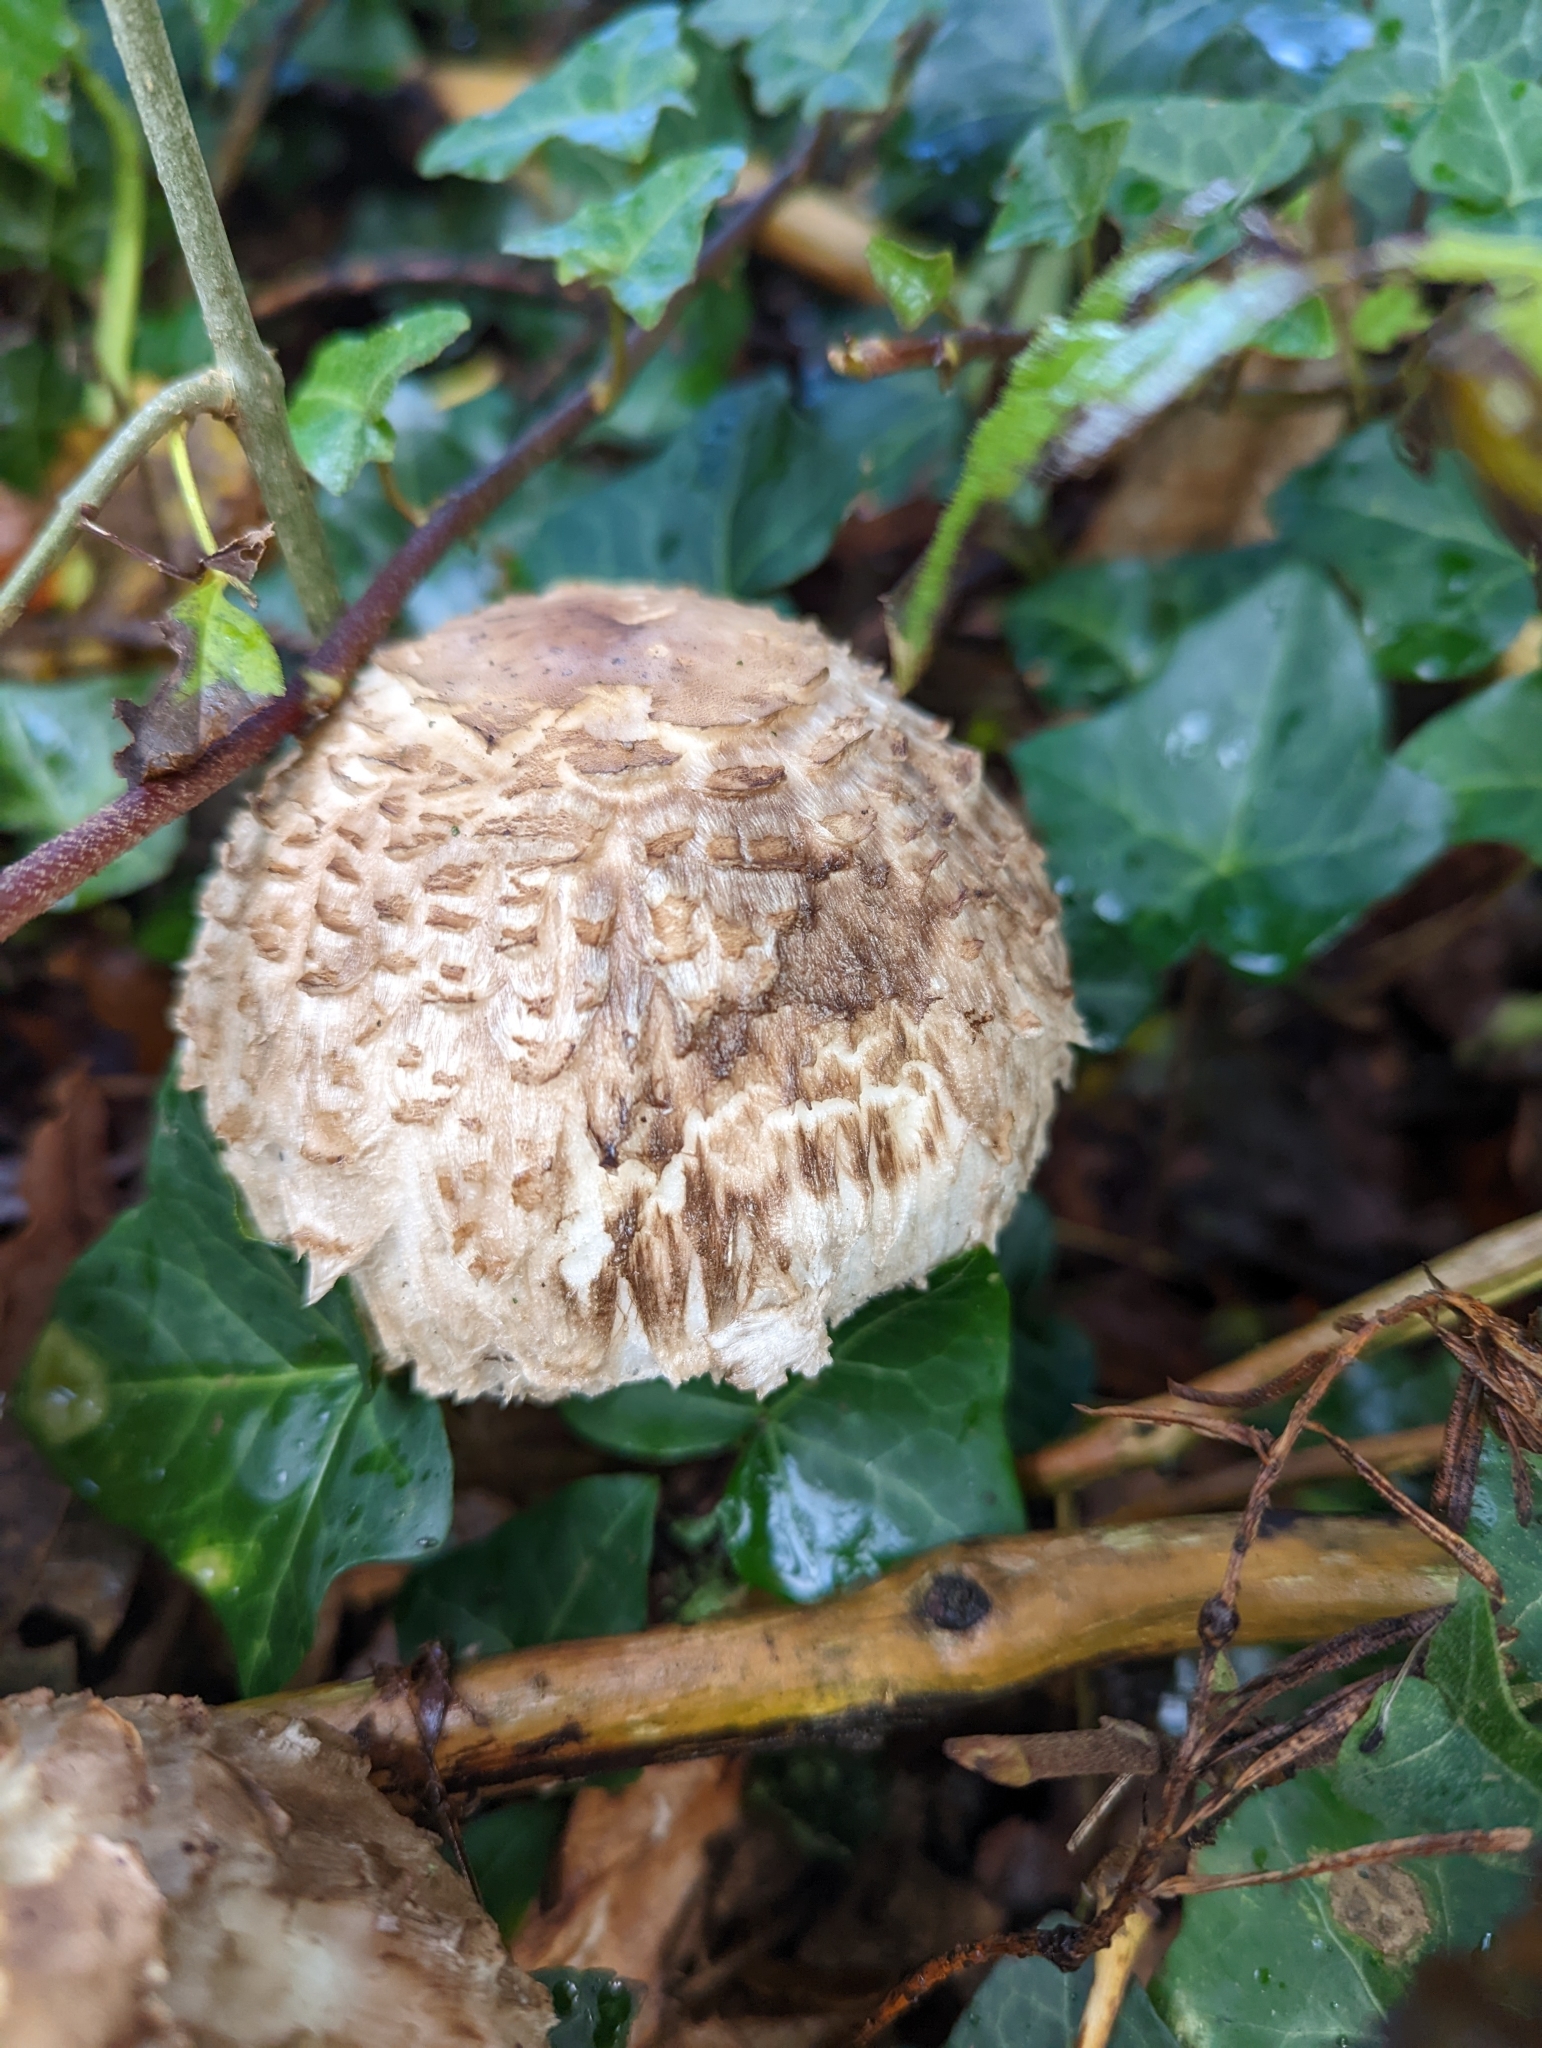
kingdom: Fungi
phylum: Basidiomycota
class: Agaricomycetes
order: Agaricales
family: Agaricaceae
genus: Chlorophyllum
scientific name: Chlorophyllum rhacodes
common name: Shaggy parasol
